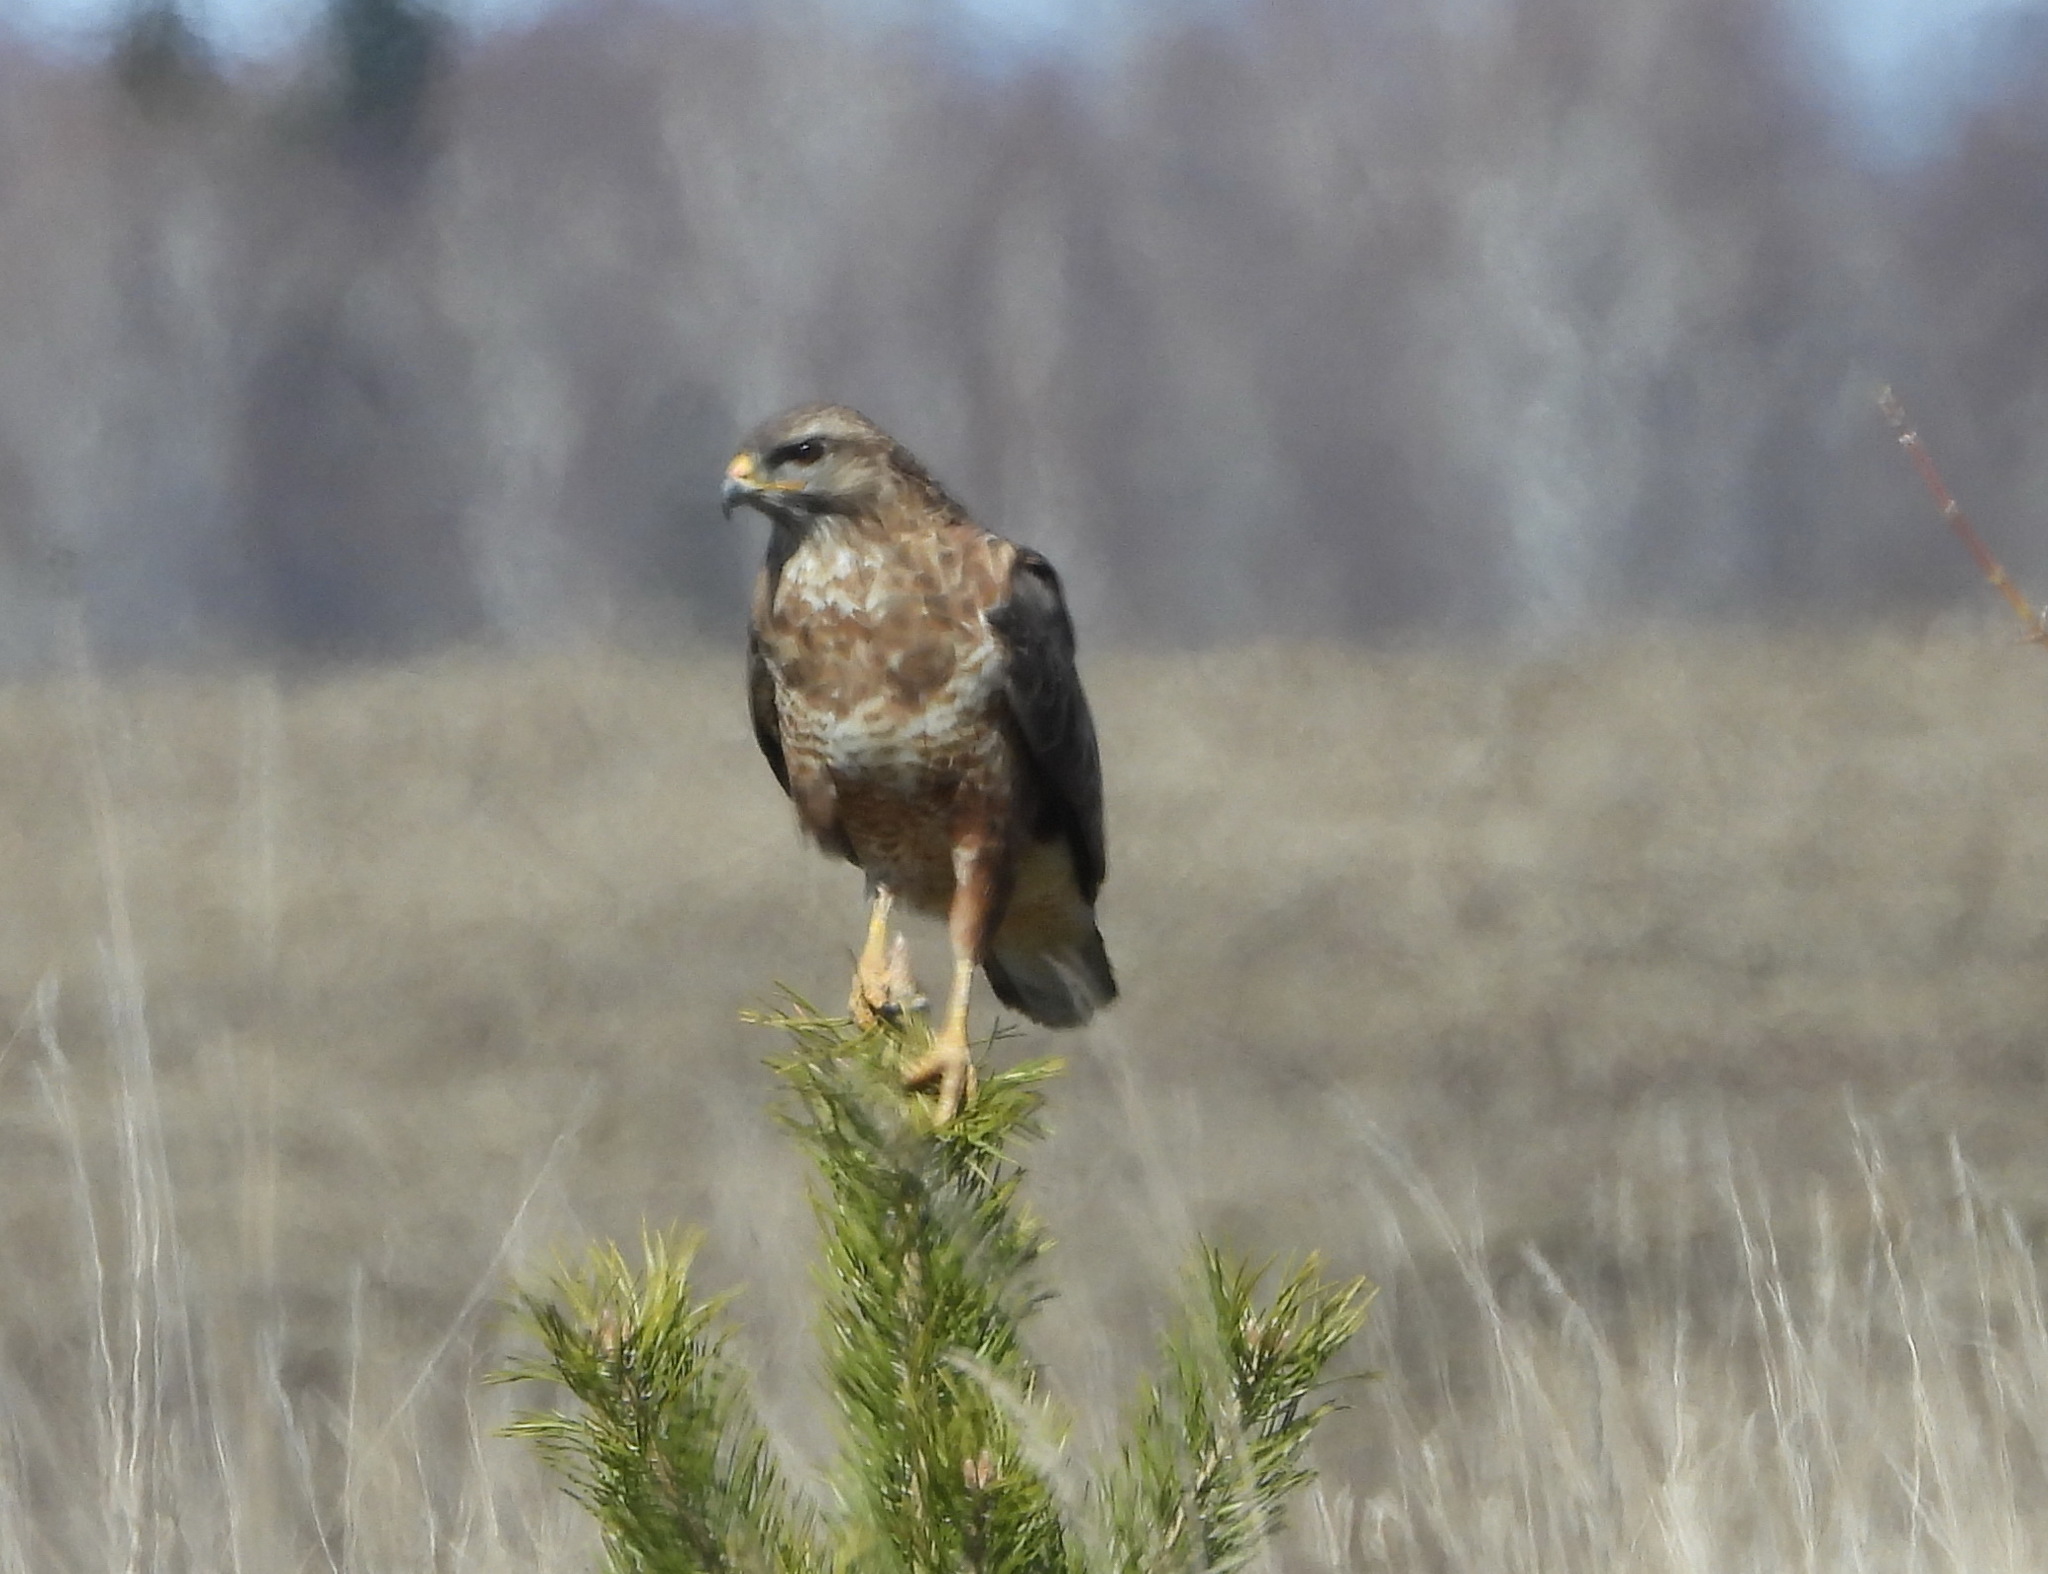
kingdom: Animalia
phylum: Chordata
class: Aves
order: Accipitriformes
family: Accipitridae
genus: Buteo
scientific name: Buteo buteo
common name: Common buzzard
